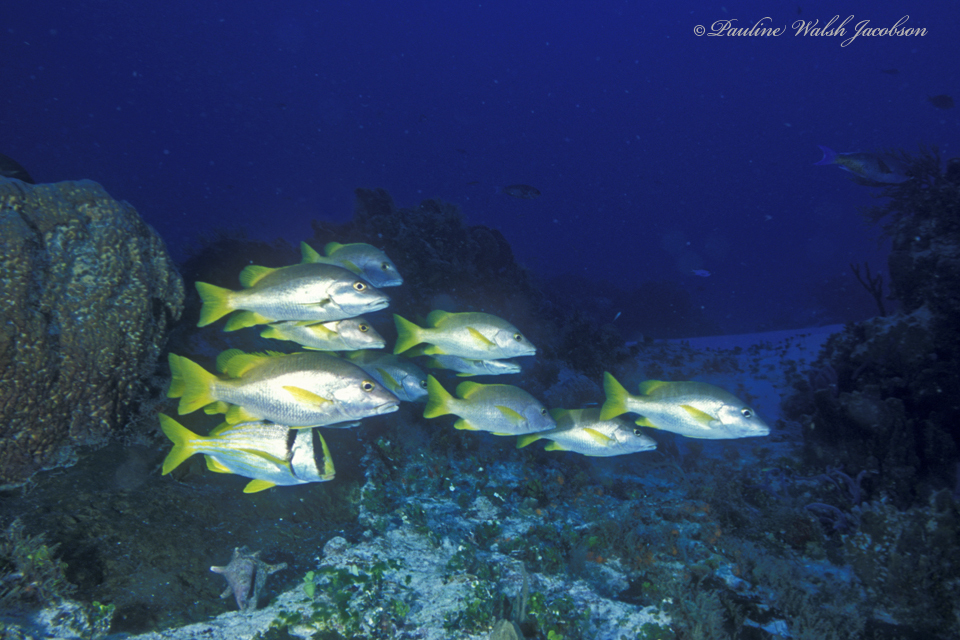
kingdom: Animalia
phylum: Chordata
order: Perciformes
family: Haemulidae
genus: Anisotremus
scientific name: Anisotremus virginicus
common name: Porkfish
